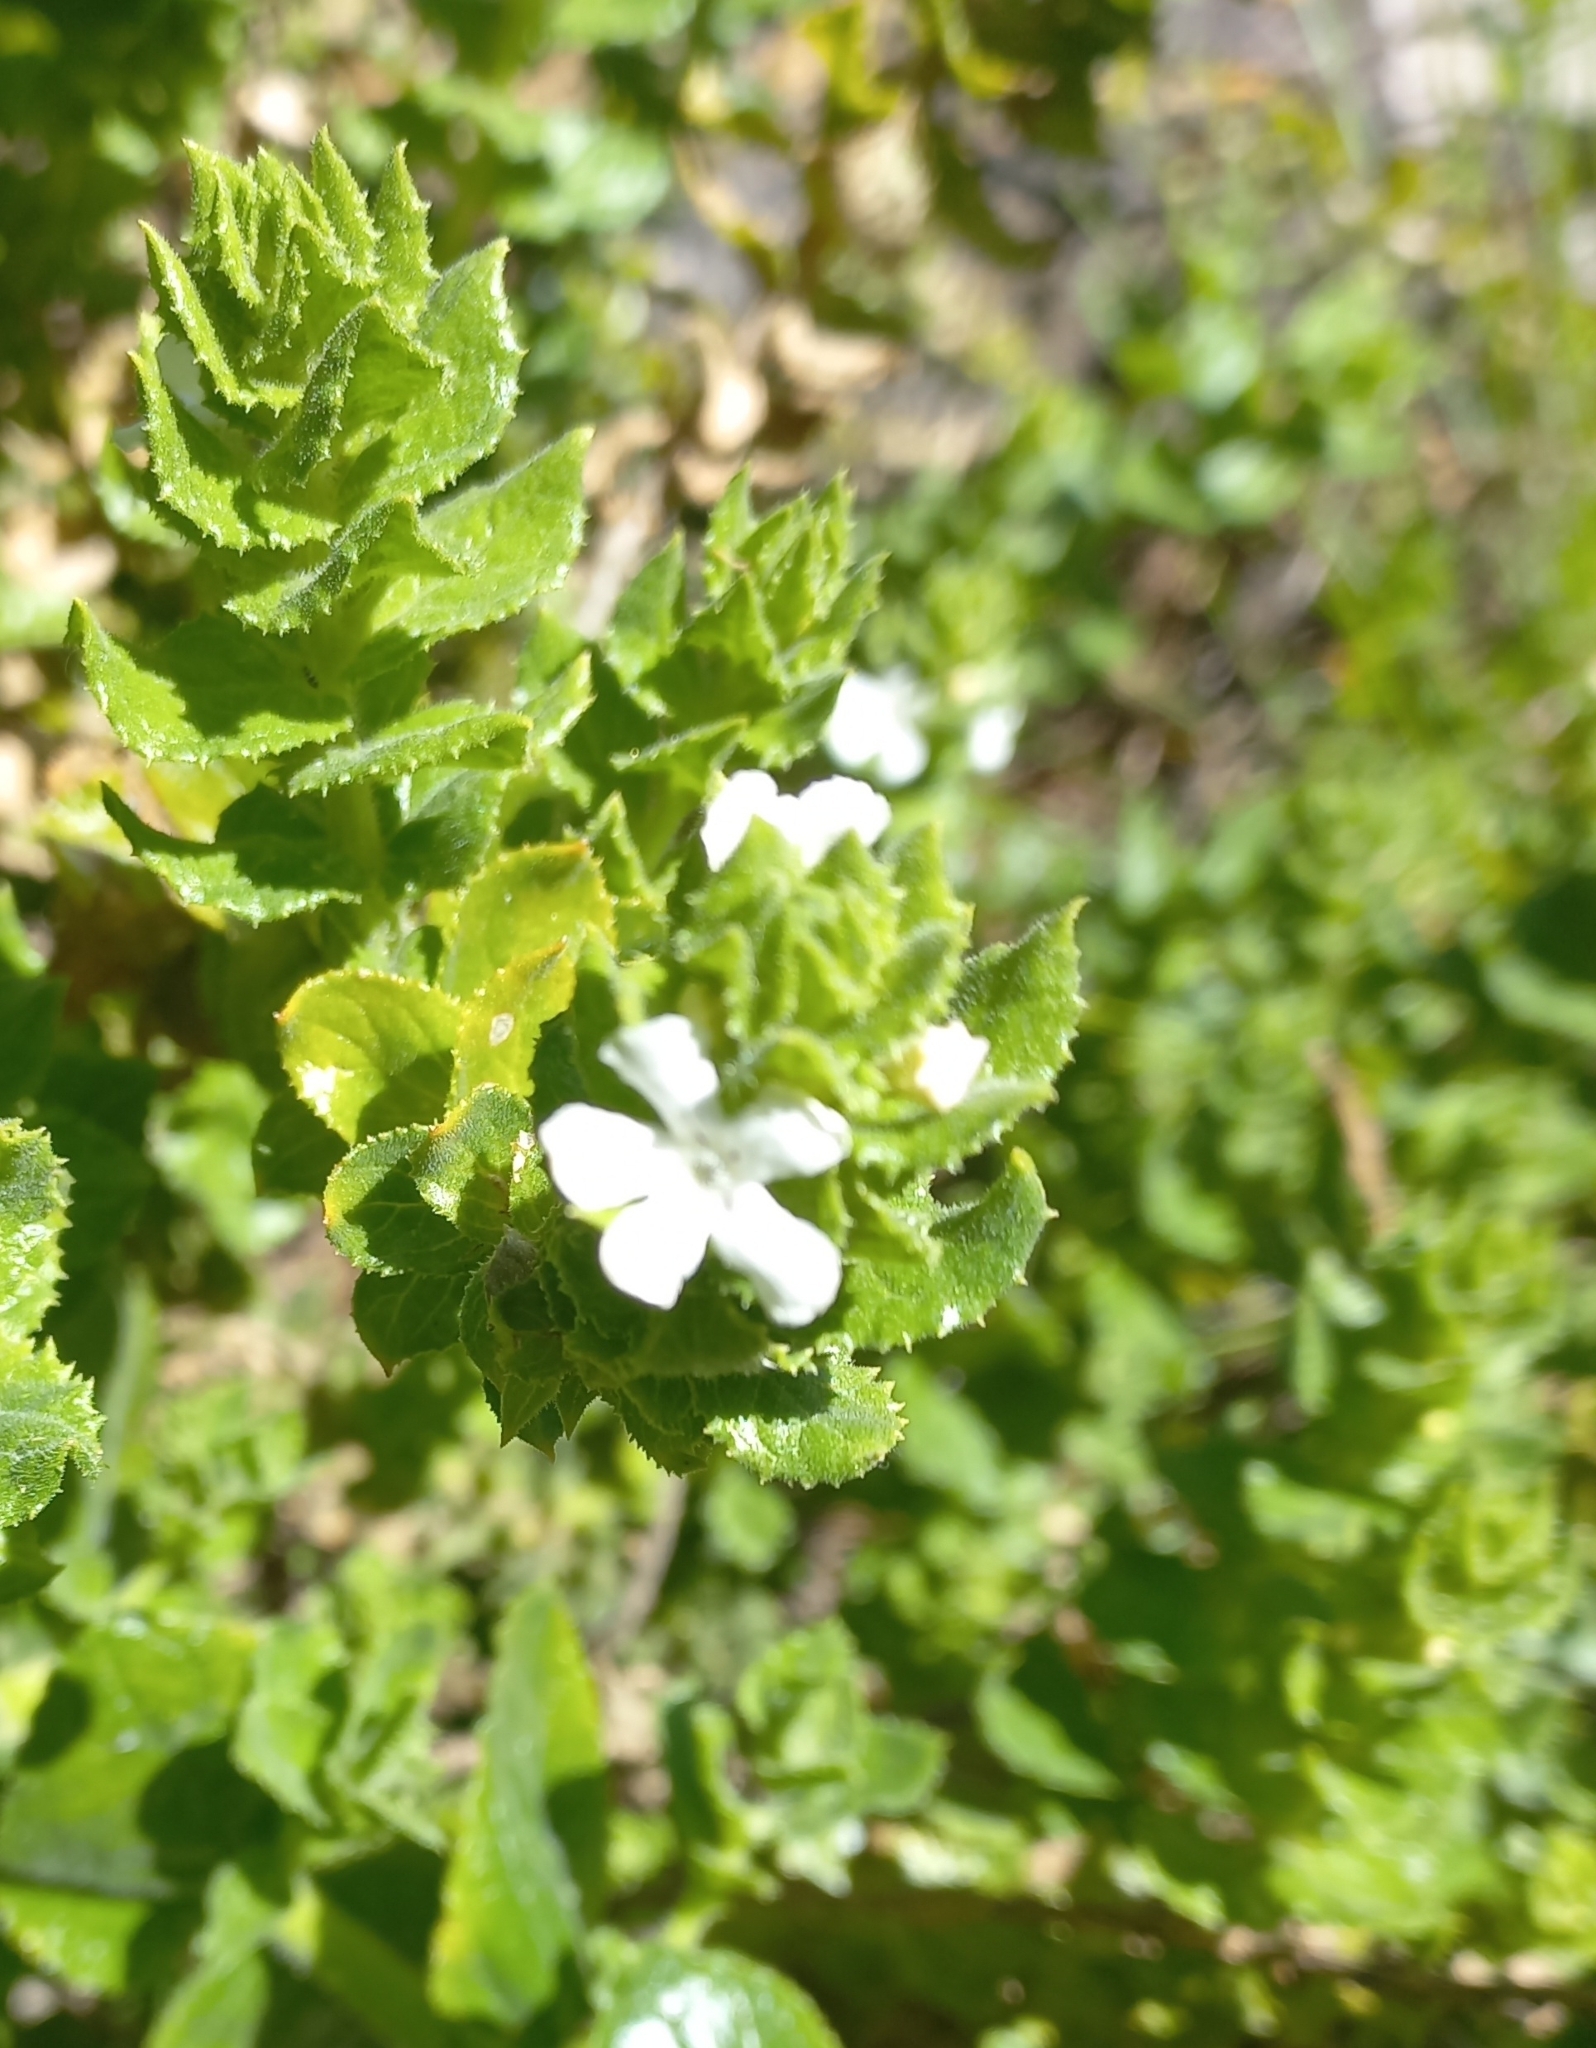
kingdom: Plantae
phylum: Tracheophyta
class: Magnoliopsida
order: Lamiales
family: Scrophulariaceae
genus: Oftia
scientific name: Oftia africana
